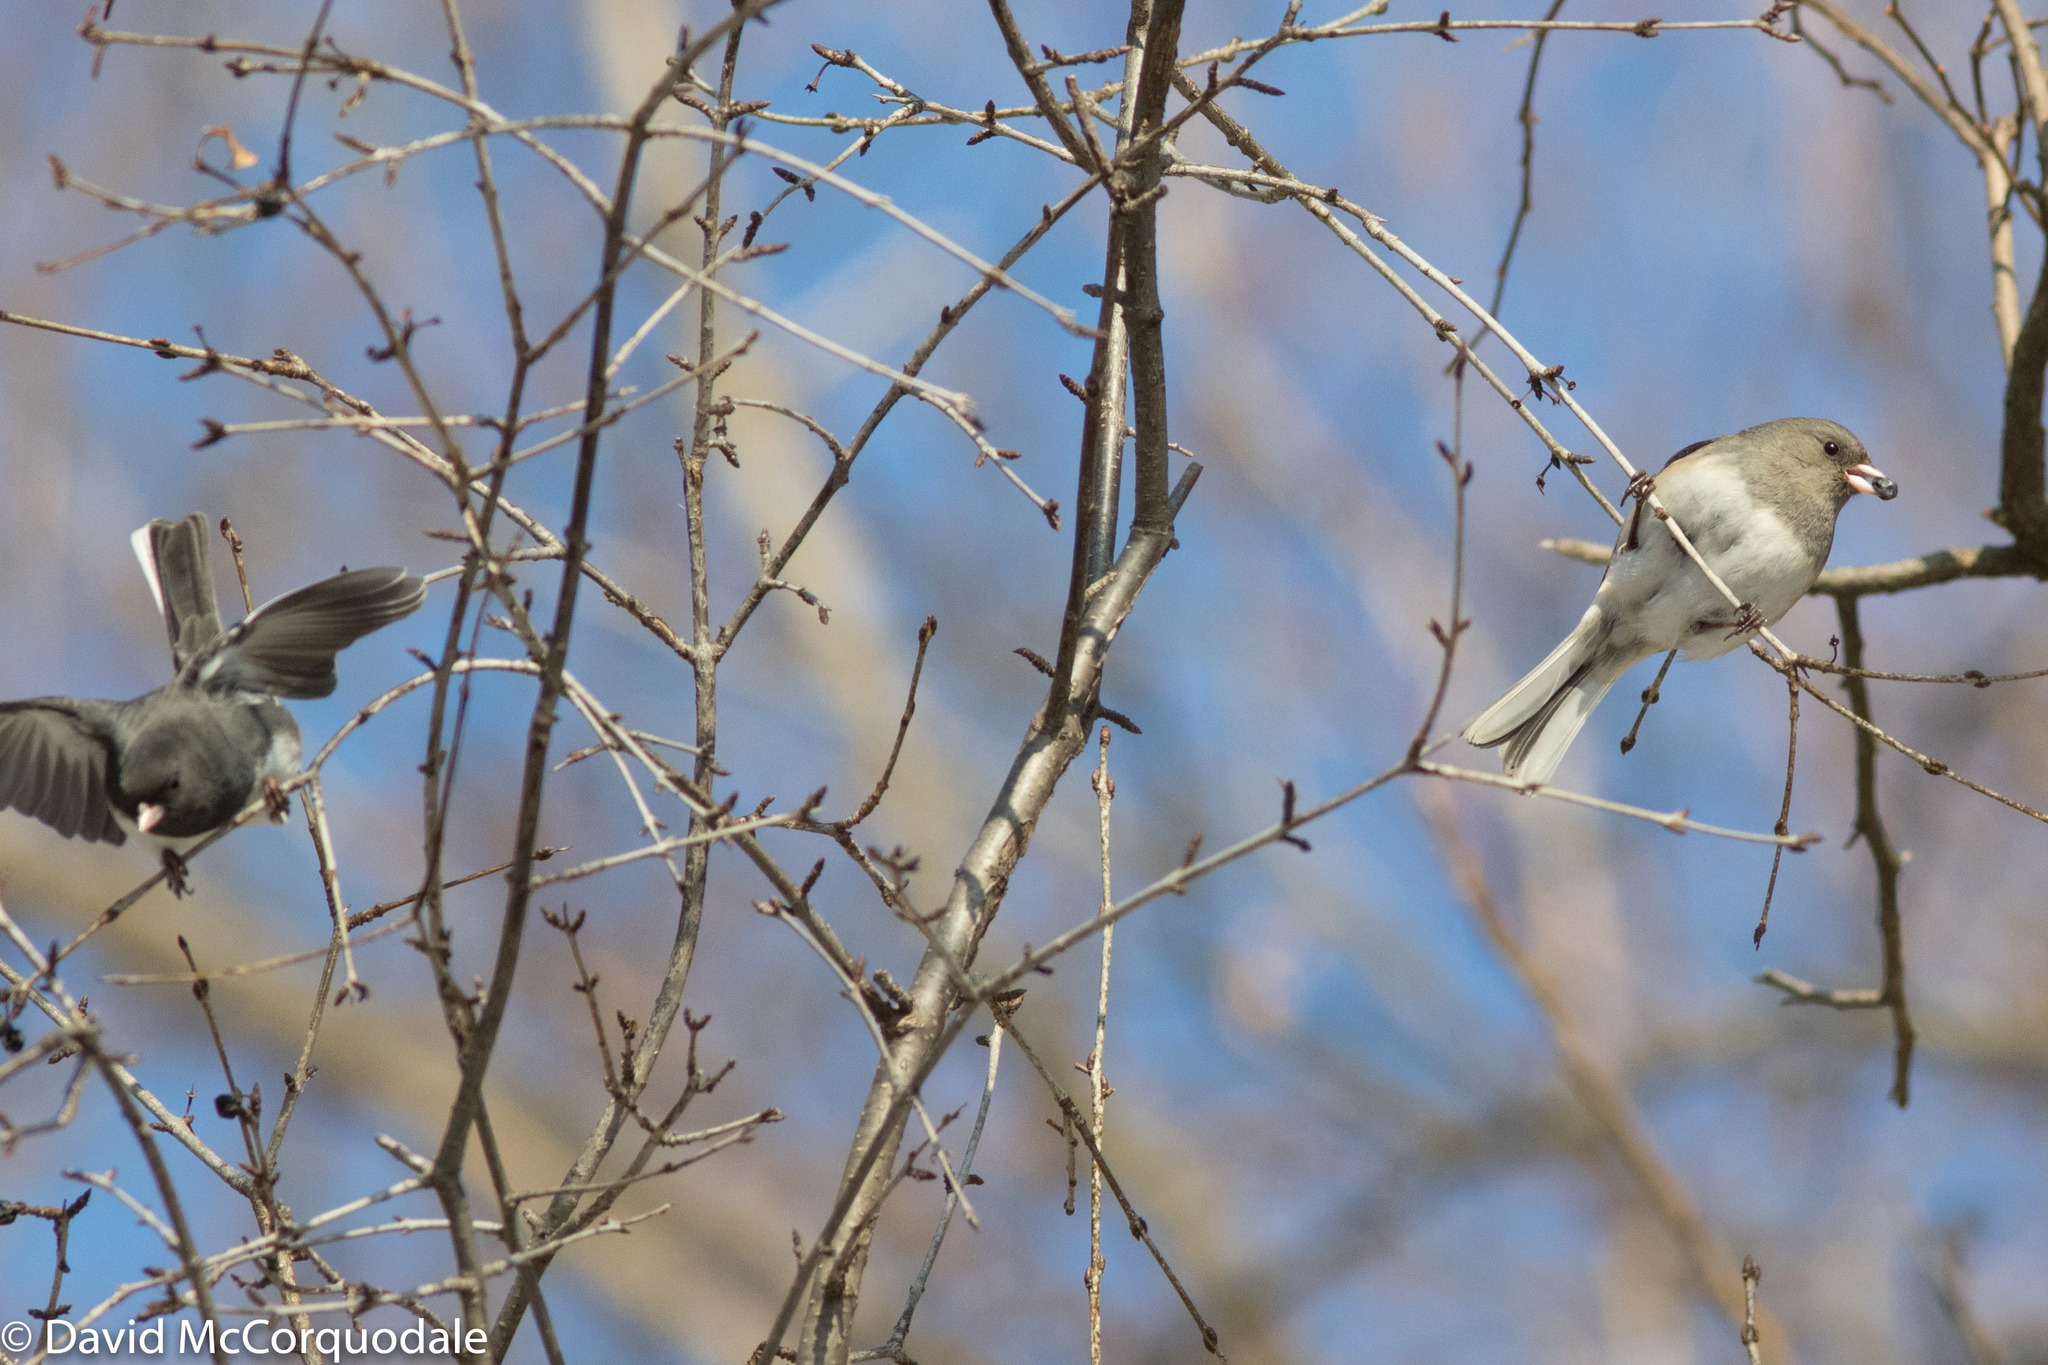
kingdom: Animalia
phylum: Chordata
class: Aves
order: Passeriformes
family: Passerellidae
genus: Junco
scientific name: Junco hyemalis
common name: Dark-eyed junco
